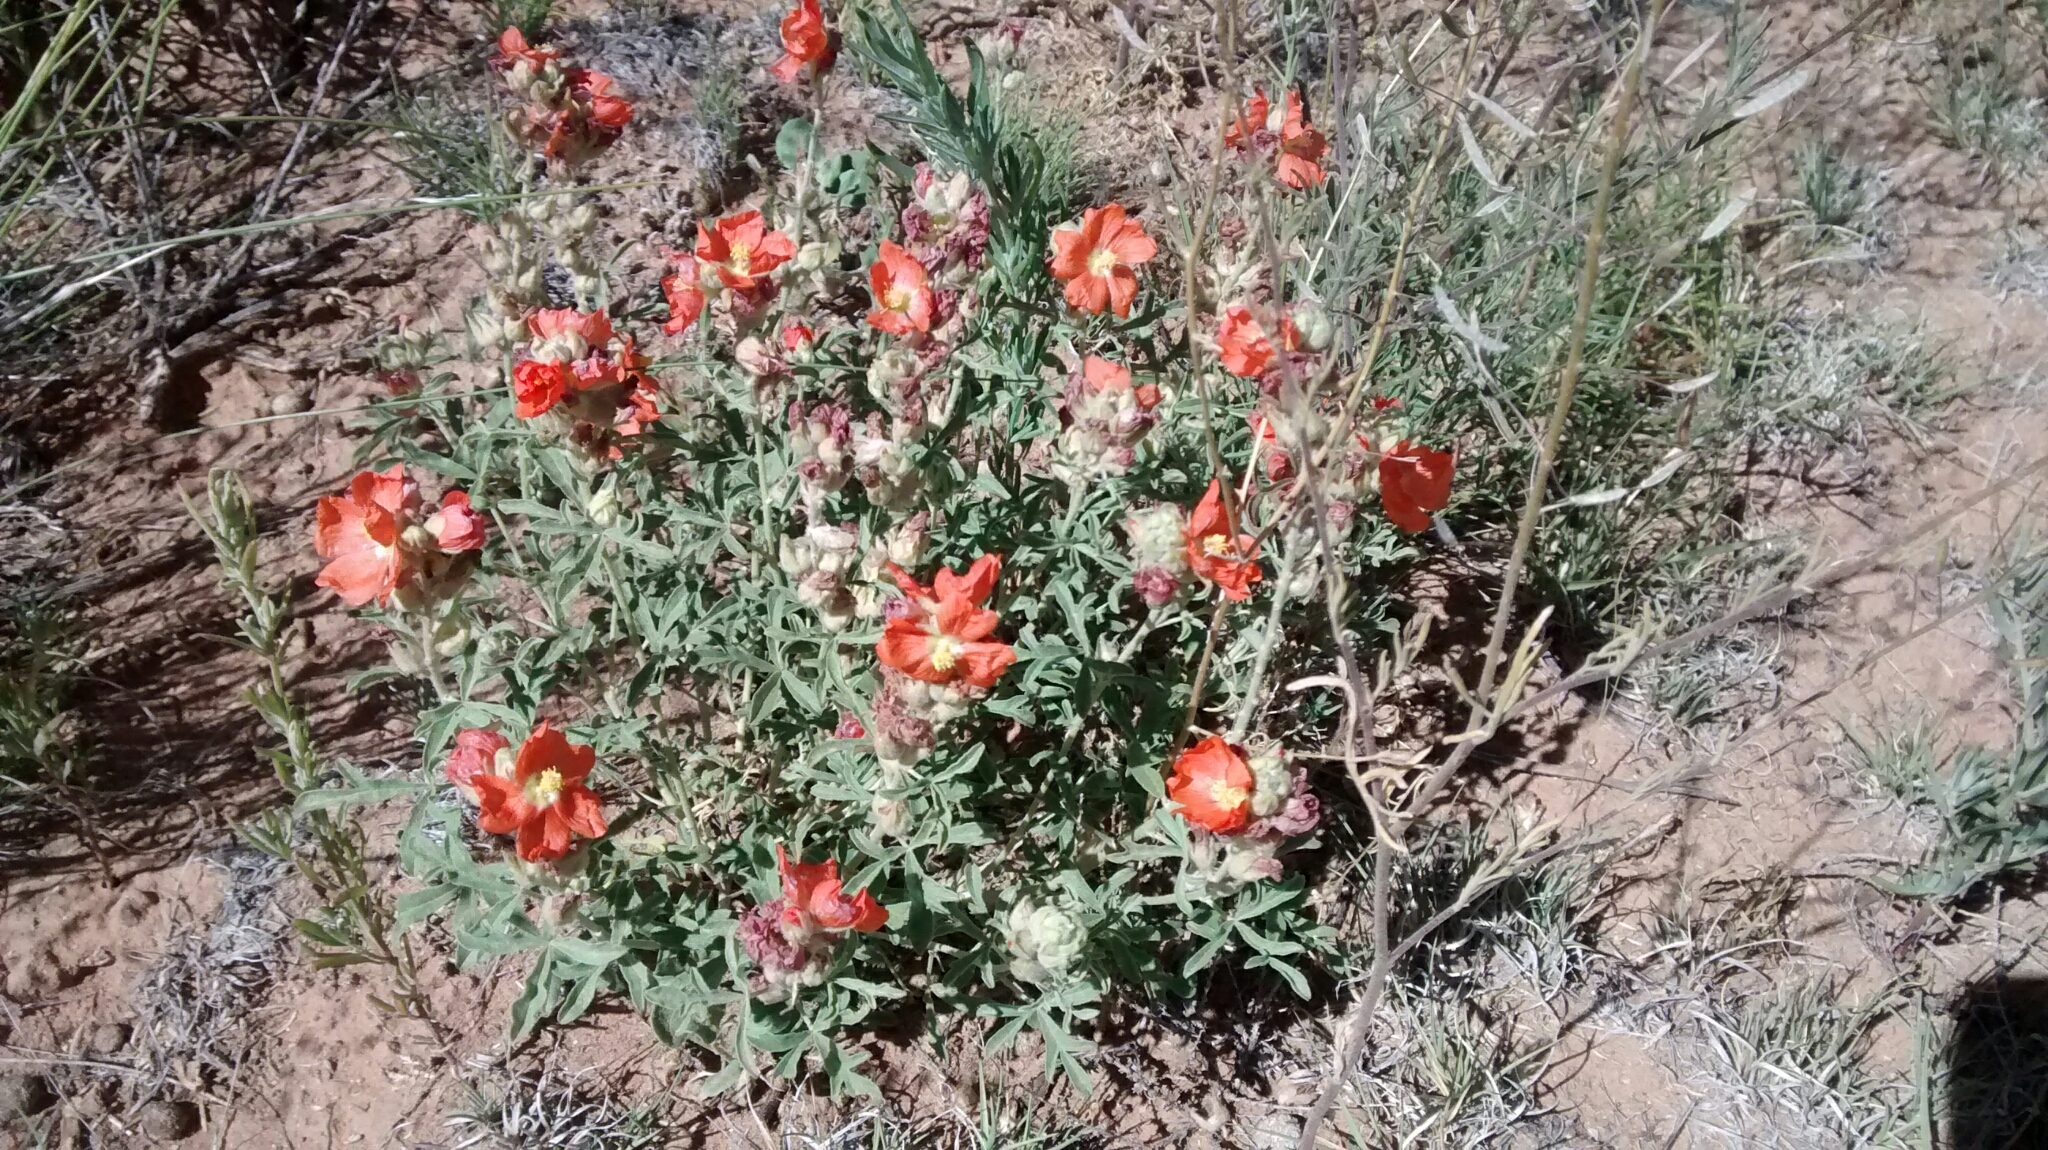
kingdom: Plantae
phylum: Tracheophyta
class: Magnoliopsida
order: Malvales
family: Malvaceae
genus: Sphaeralcea
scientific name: Sphaeralcea coccinea
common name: Moss-rose
